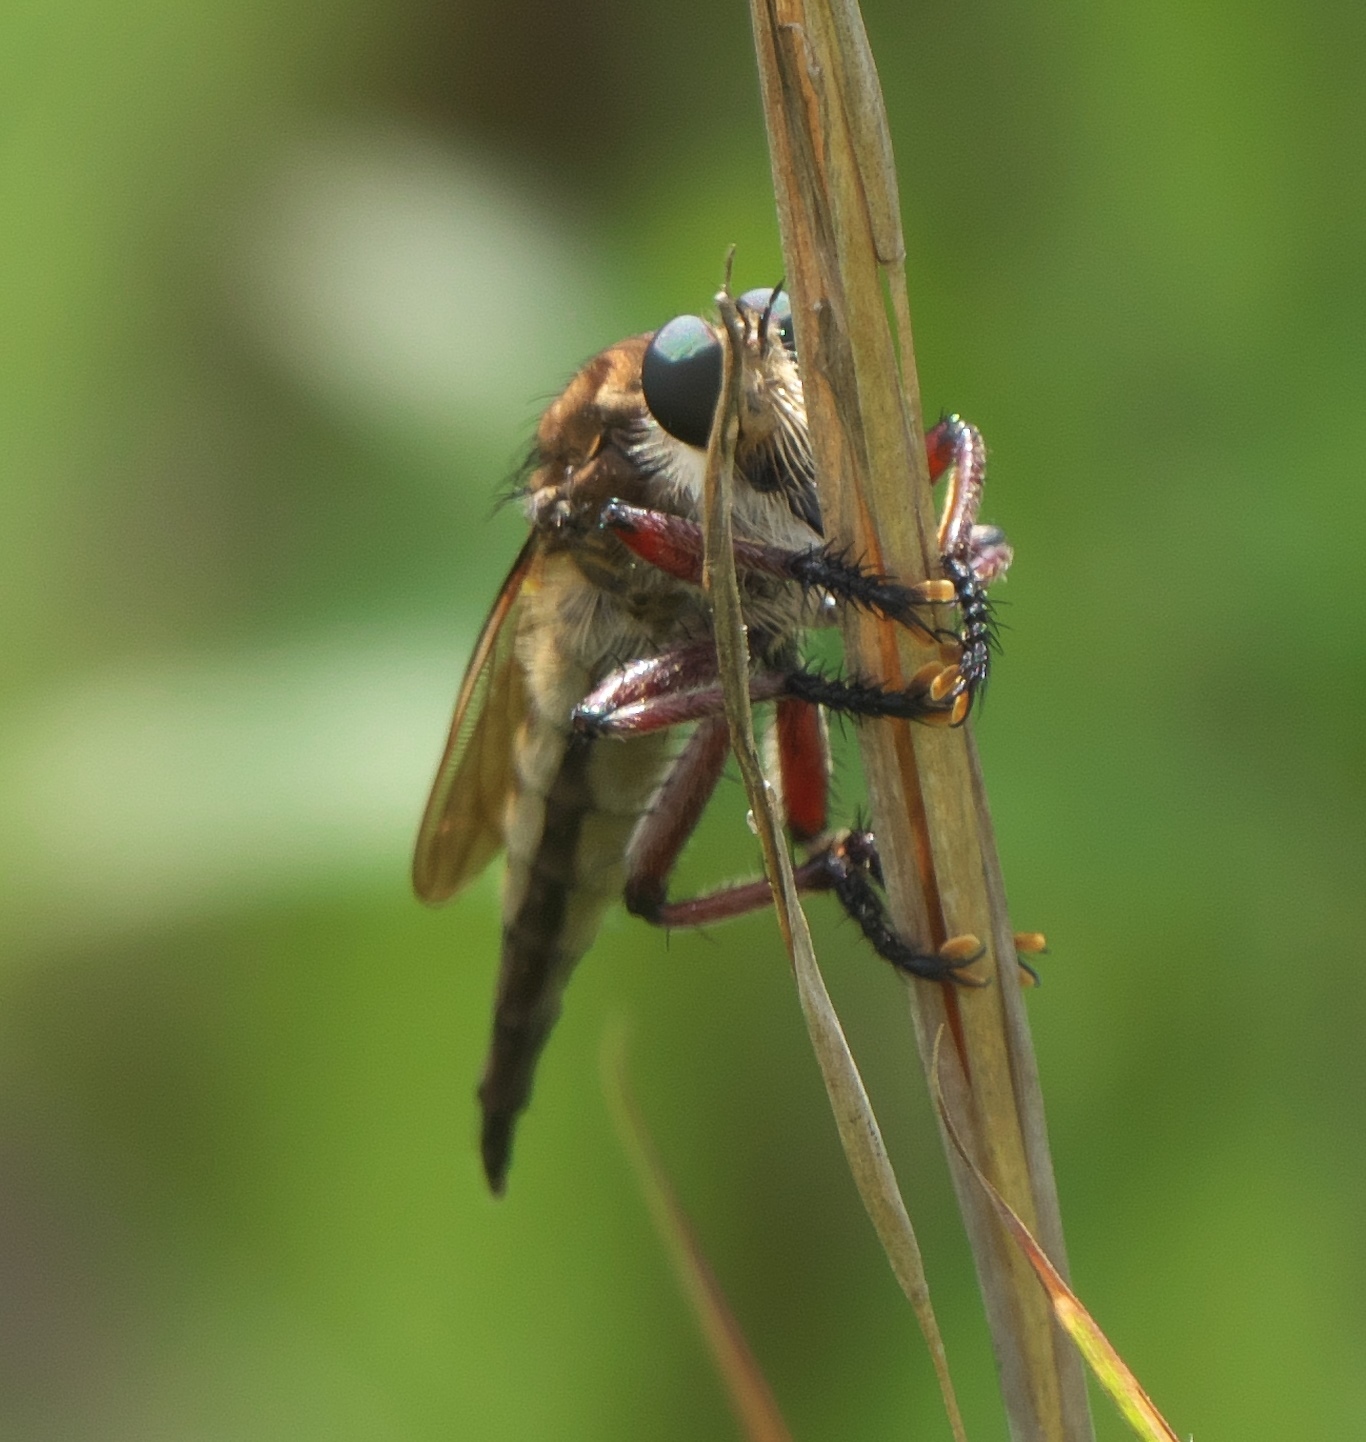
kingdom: Animalia
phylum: Arthropoda
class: Insecta
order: Diptera
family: Asilidae
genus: Promachus
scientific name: Promachus hinei
